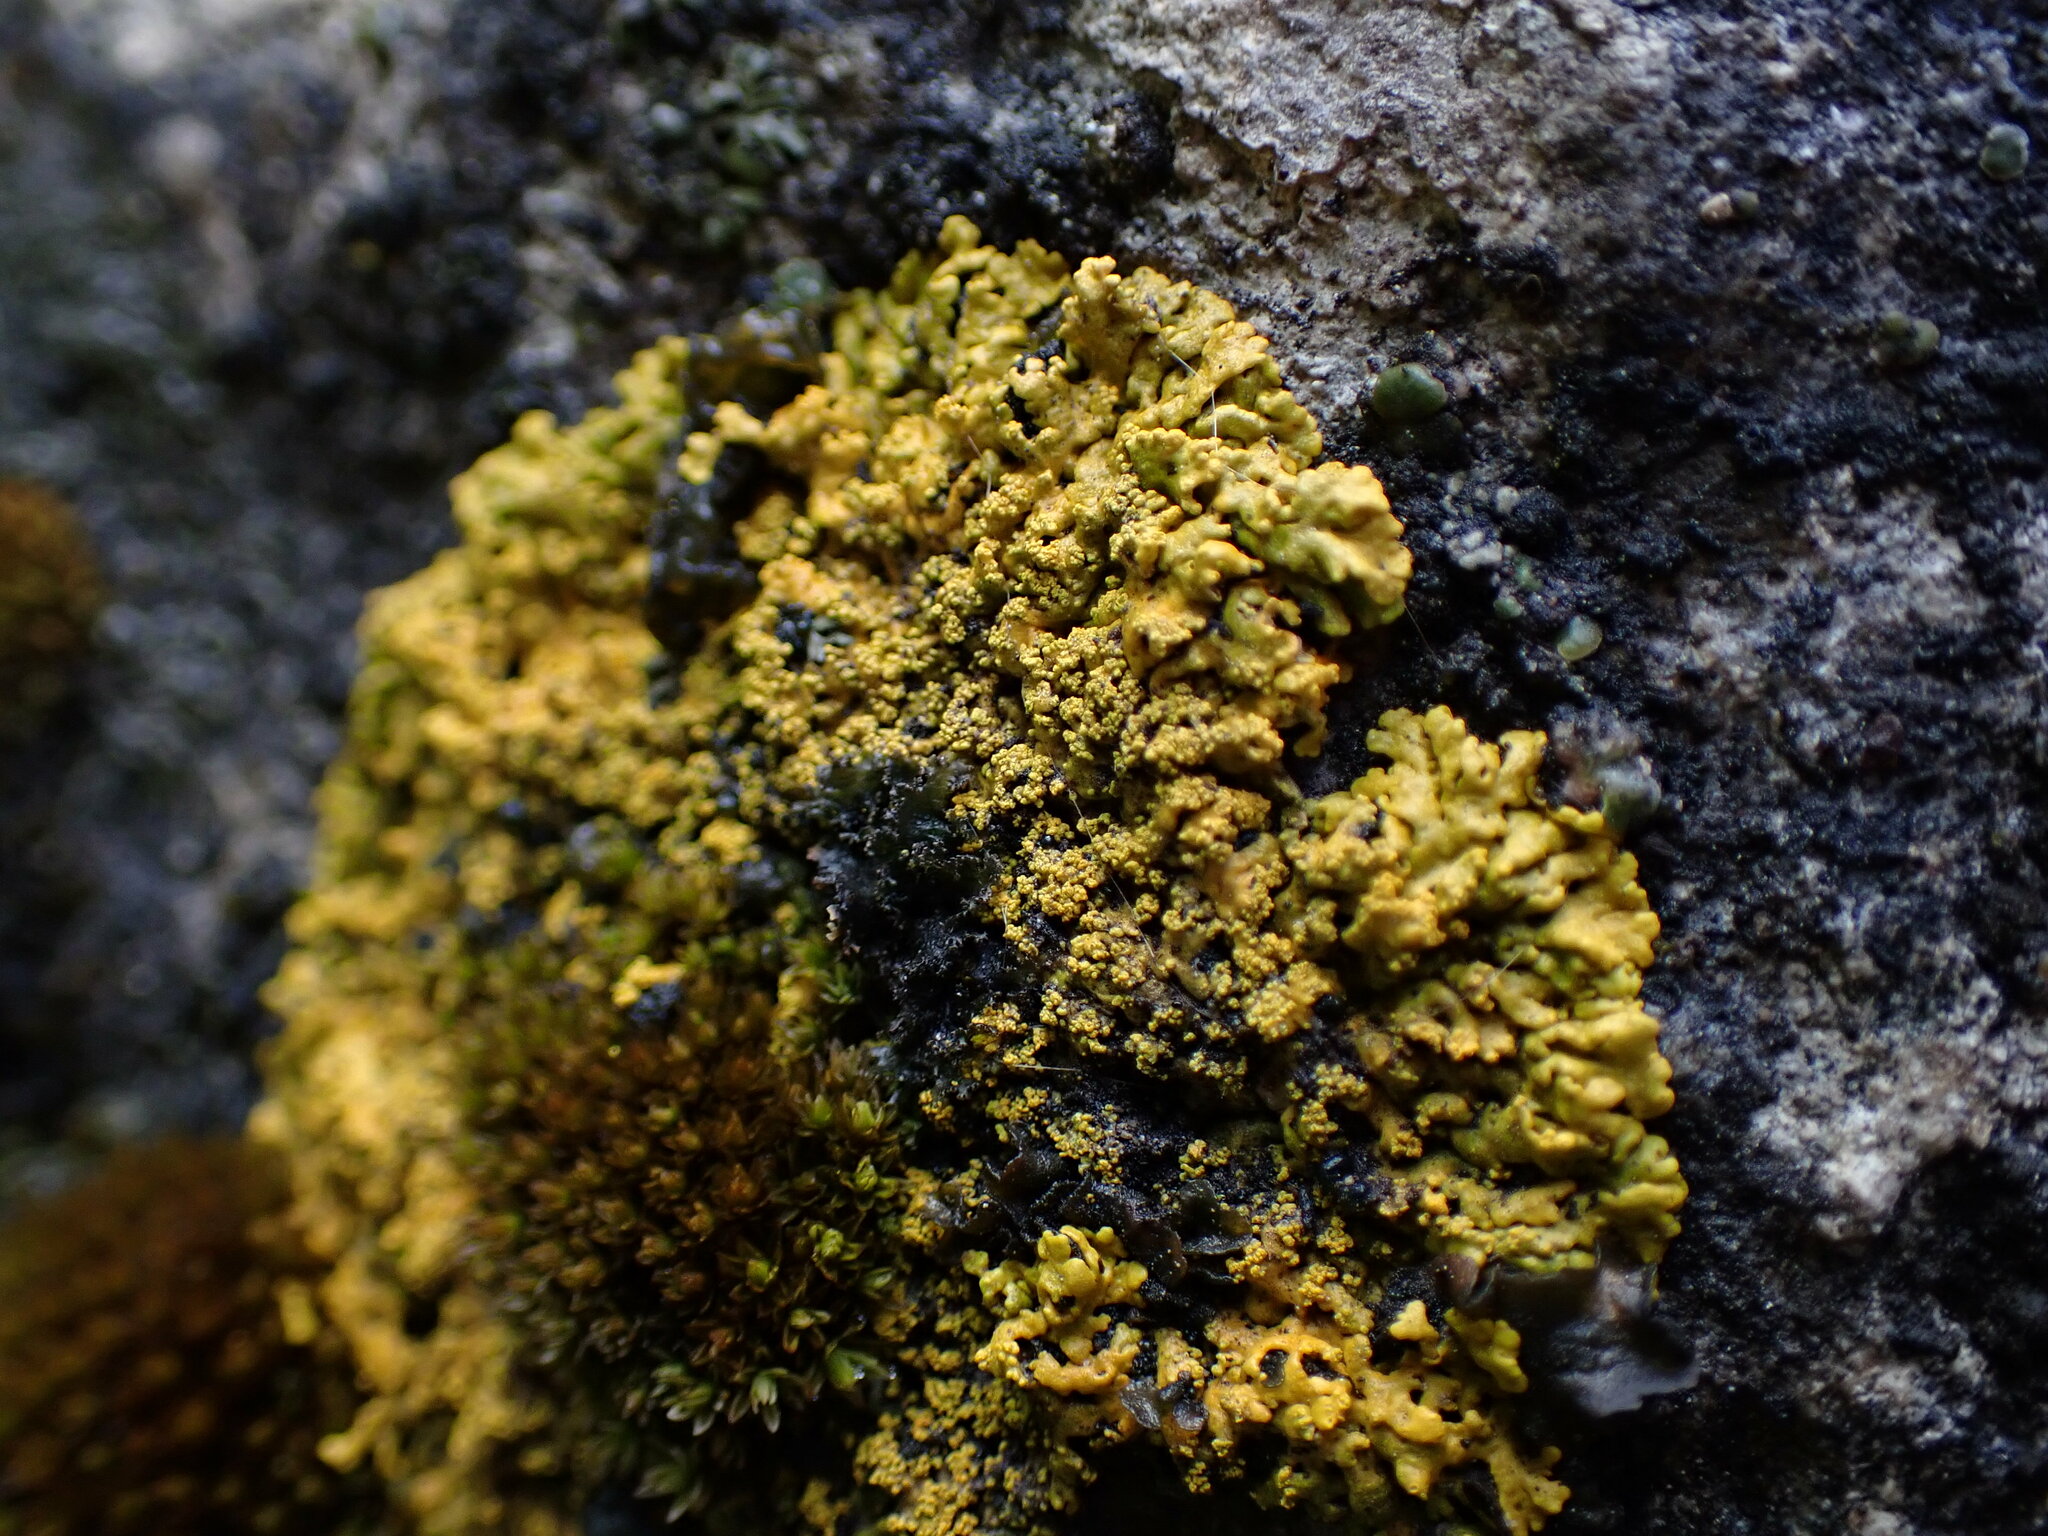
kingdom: Fungi
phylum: Ascomycota
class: Lecanoromycetes
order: Teloschistales
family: Teloschistaceae
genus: Rusavskia
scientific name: Rusavskia sorediata
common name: Sugared sunburst lichen
